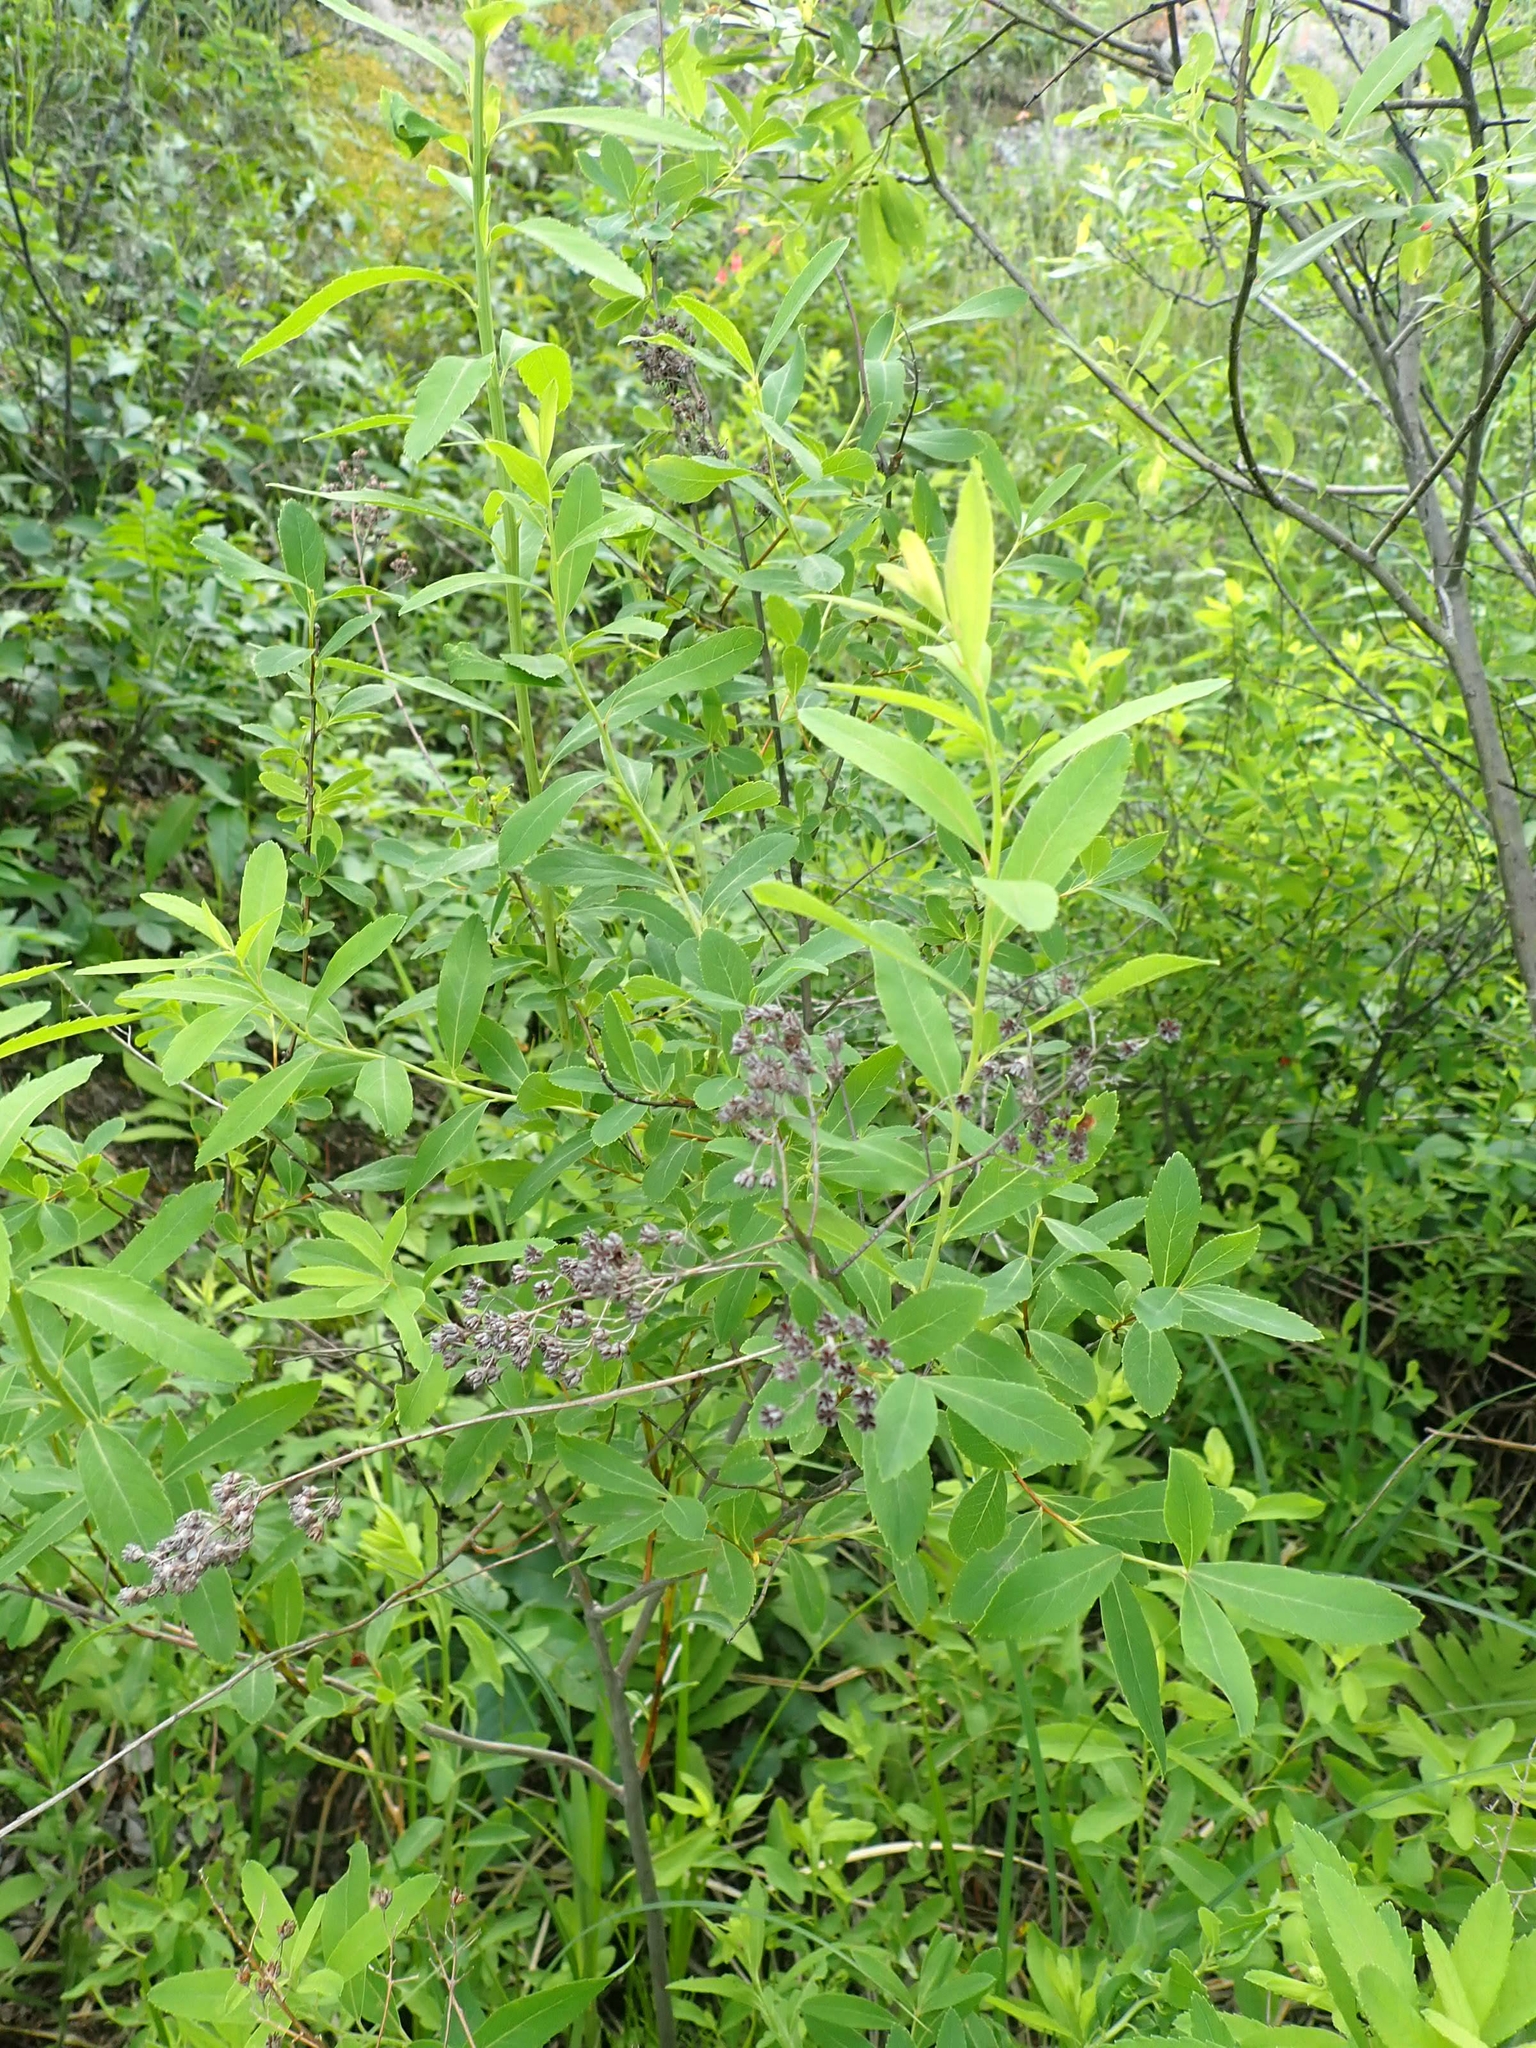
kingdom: Plantae
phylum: Tracheophyta
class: Magnoliopsida
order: Rosales
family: Rosaceae
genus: Spiraea
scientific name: Spiraea alba
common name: Pale bridewort
